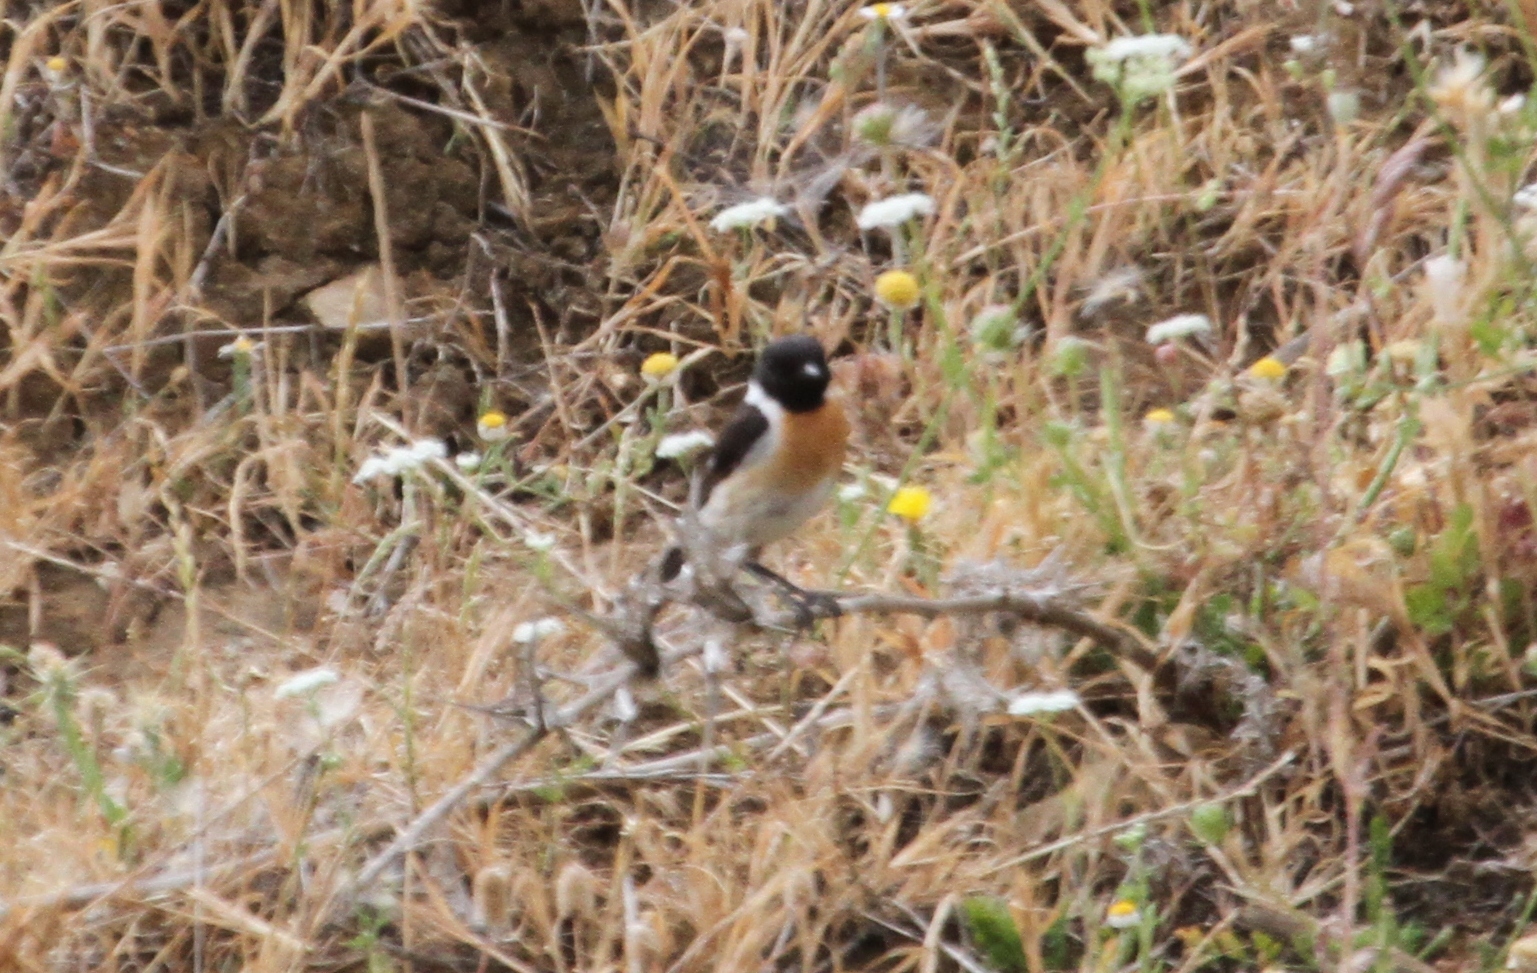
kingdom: Animalia
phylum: Chordata
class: Aves
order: Passeriformes
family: Muscicapidae
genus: Saxicola
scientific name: Saxicola rubicola
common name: European stonechat
